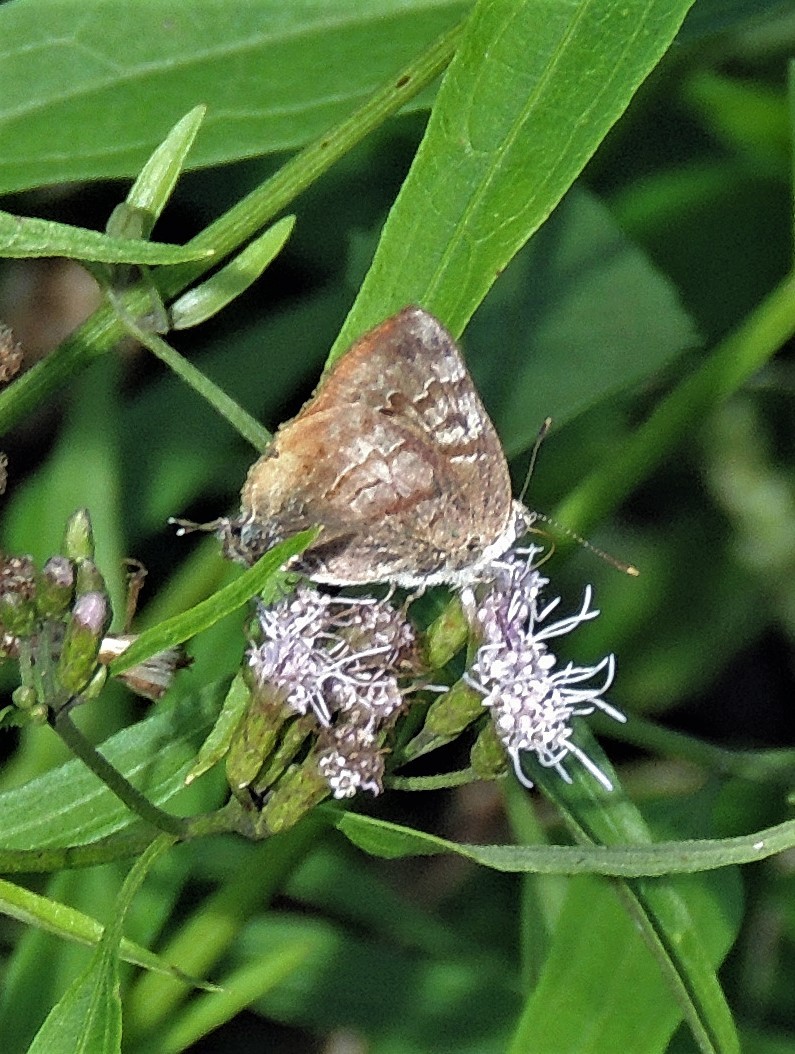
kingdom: Animalia
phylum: Arthropoda
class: Insecta
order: Lepidoptera
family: Lycaenidae
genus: Rekoa
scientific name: Rekoa palegon
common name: Gold-bordered hairstreak
